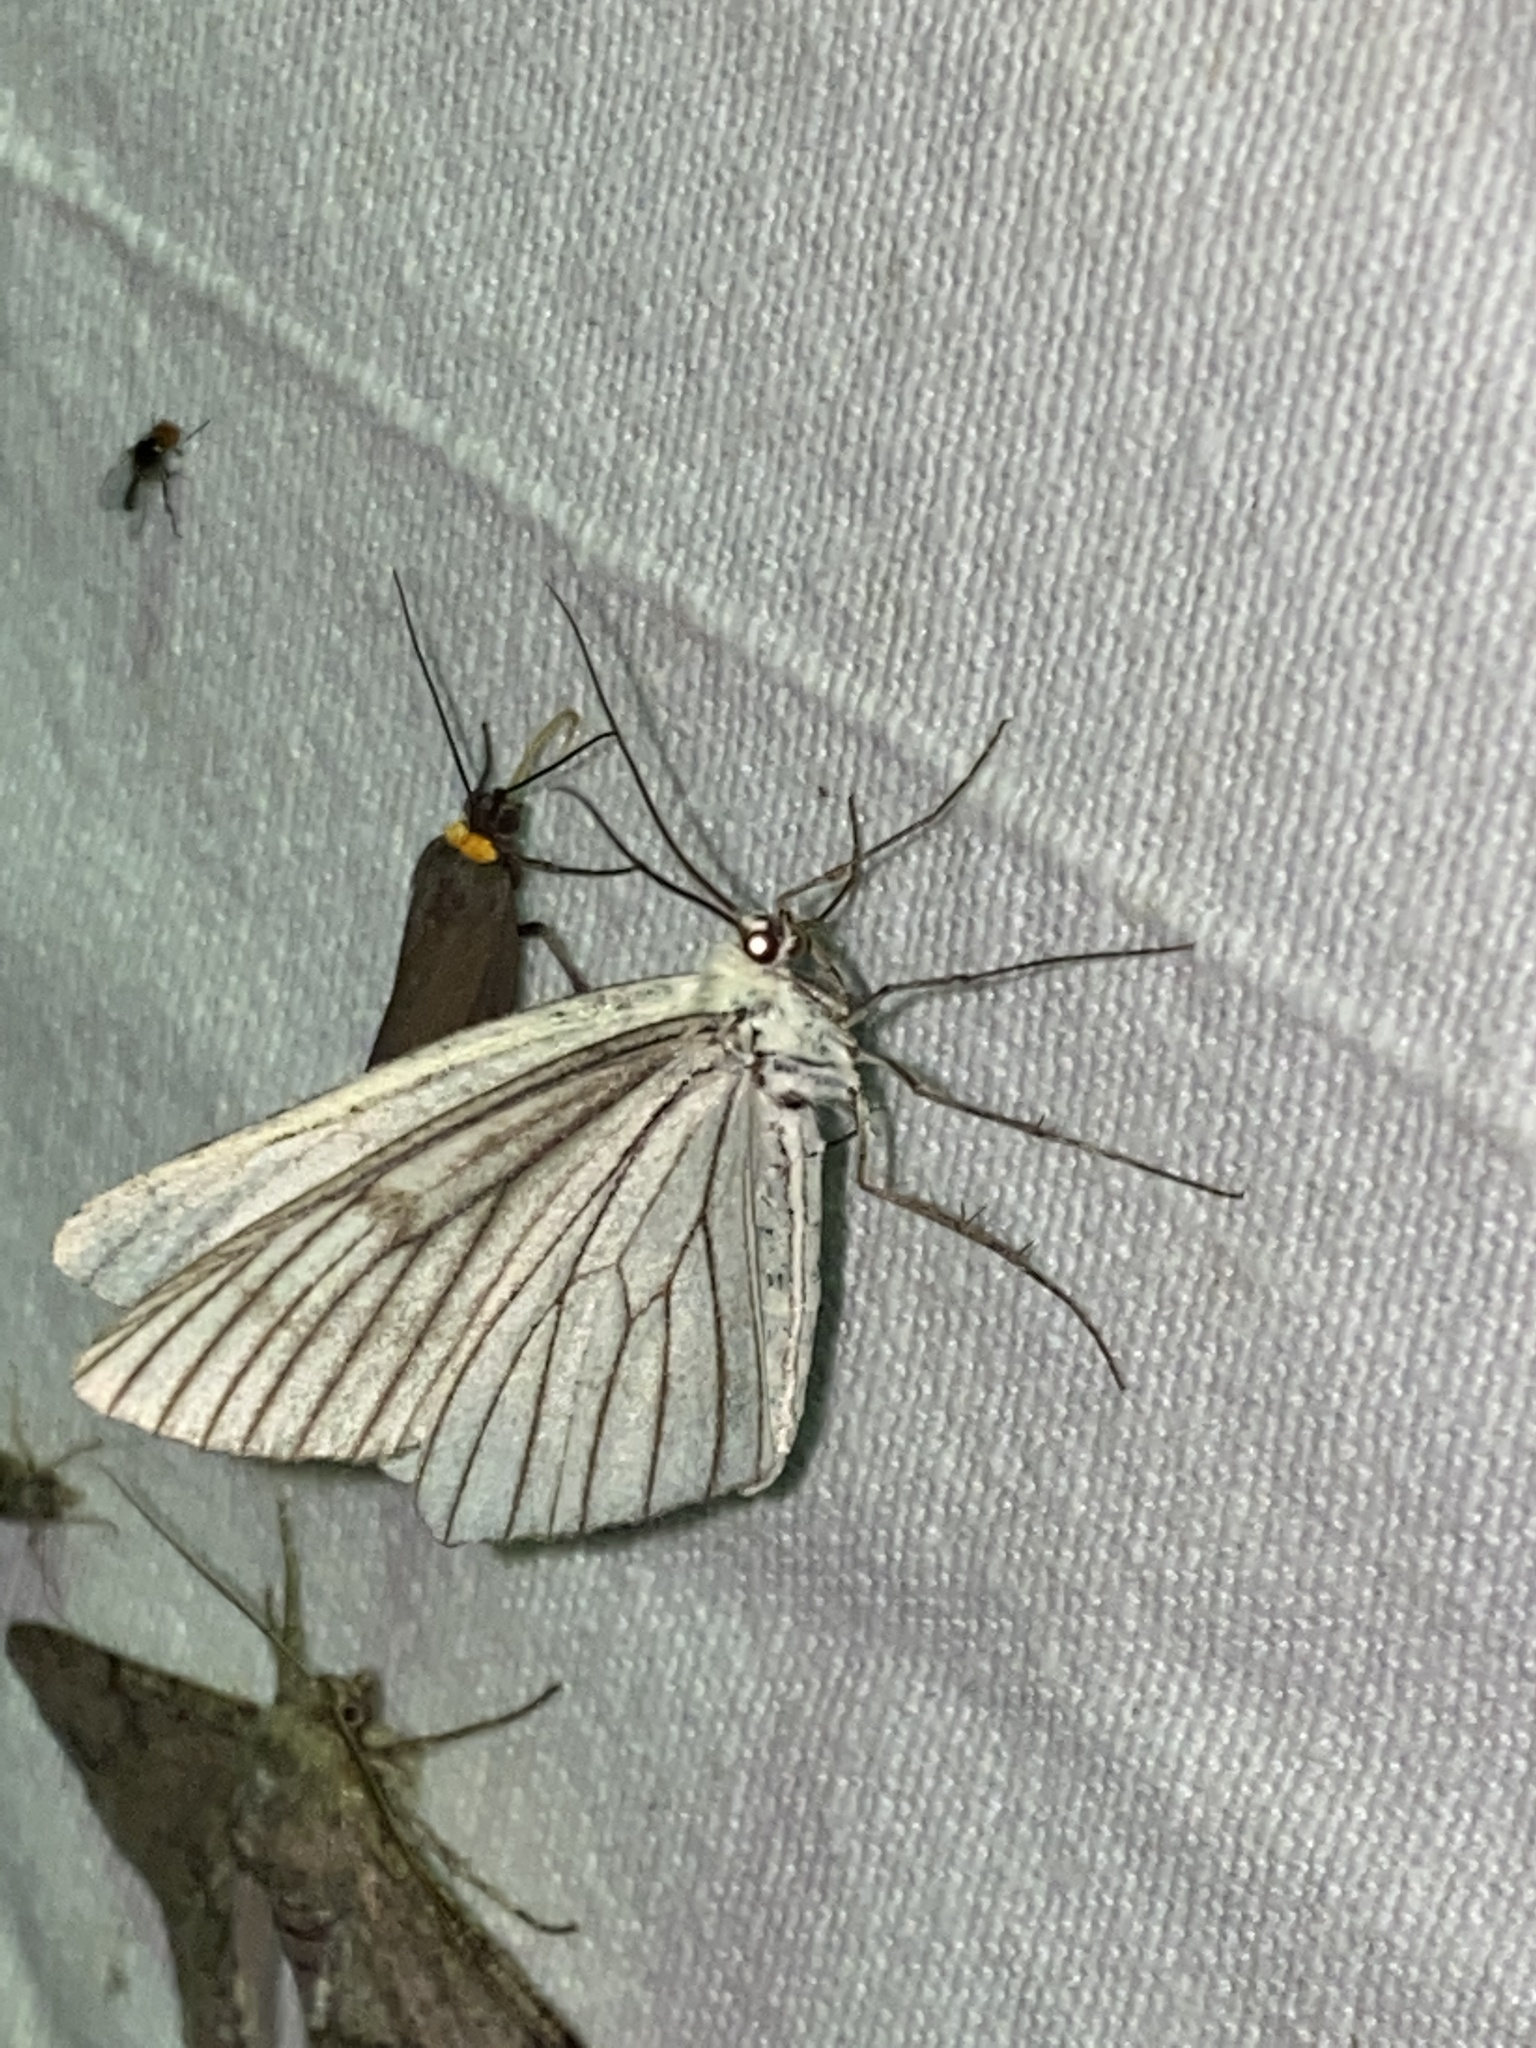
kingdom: Animalia
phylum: Arthropoda
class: Insecta
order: Lepidoptera
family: Geometridae
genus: Siona
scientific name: Siona lineata
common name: Black-veined moth
